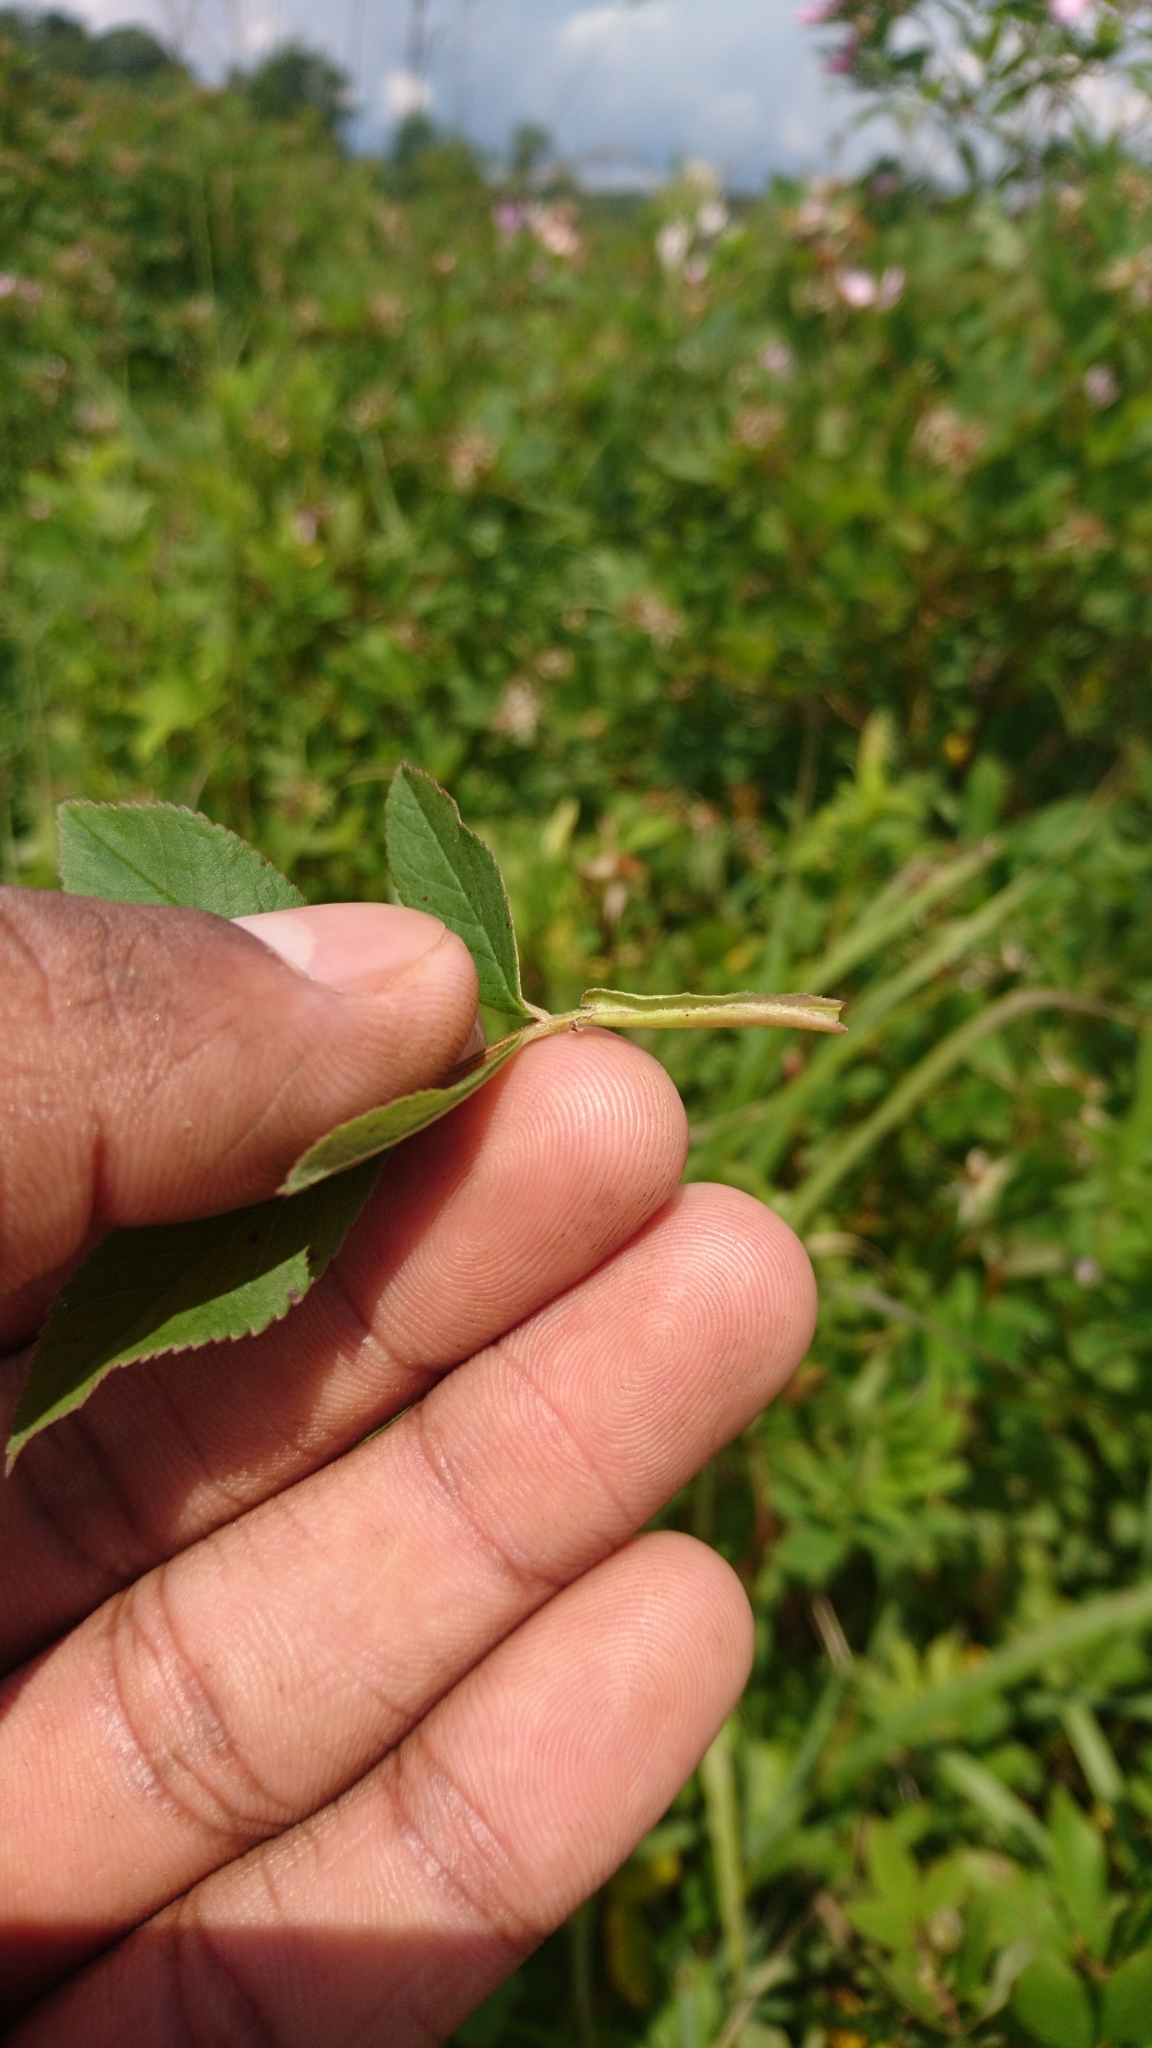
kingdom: Plantae
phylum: Tracheophyta
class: Magnoliopsida
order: Rosales
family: Rosaceae
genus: Rosa
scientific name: Rosa palustris
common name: Swamp rose
